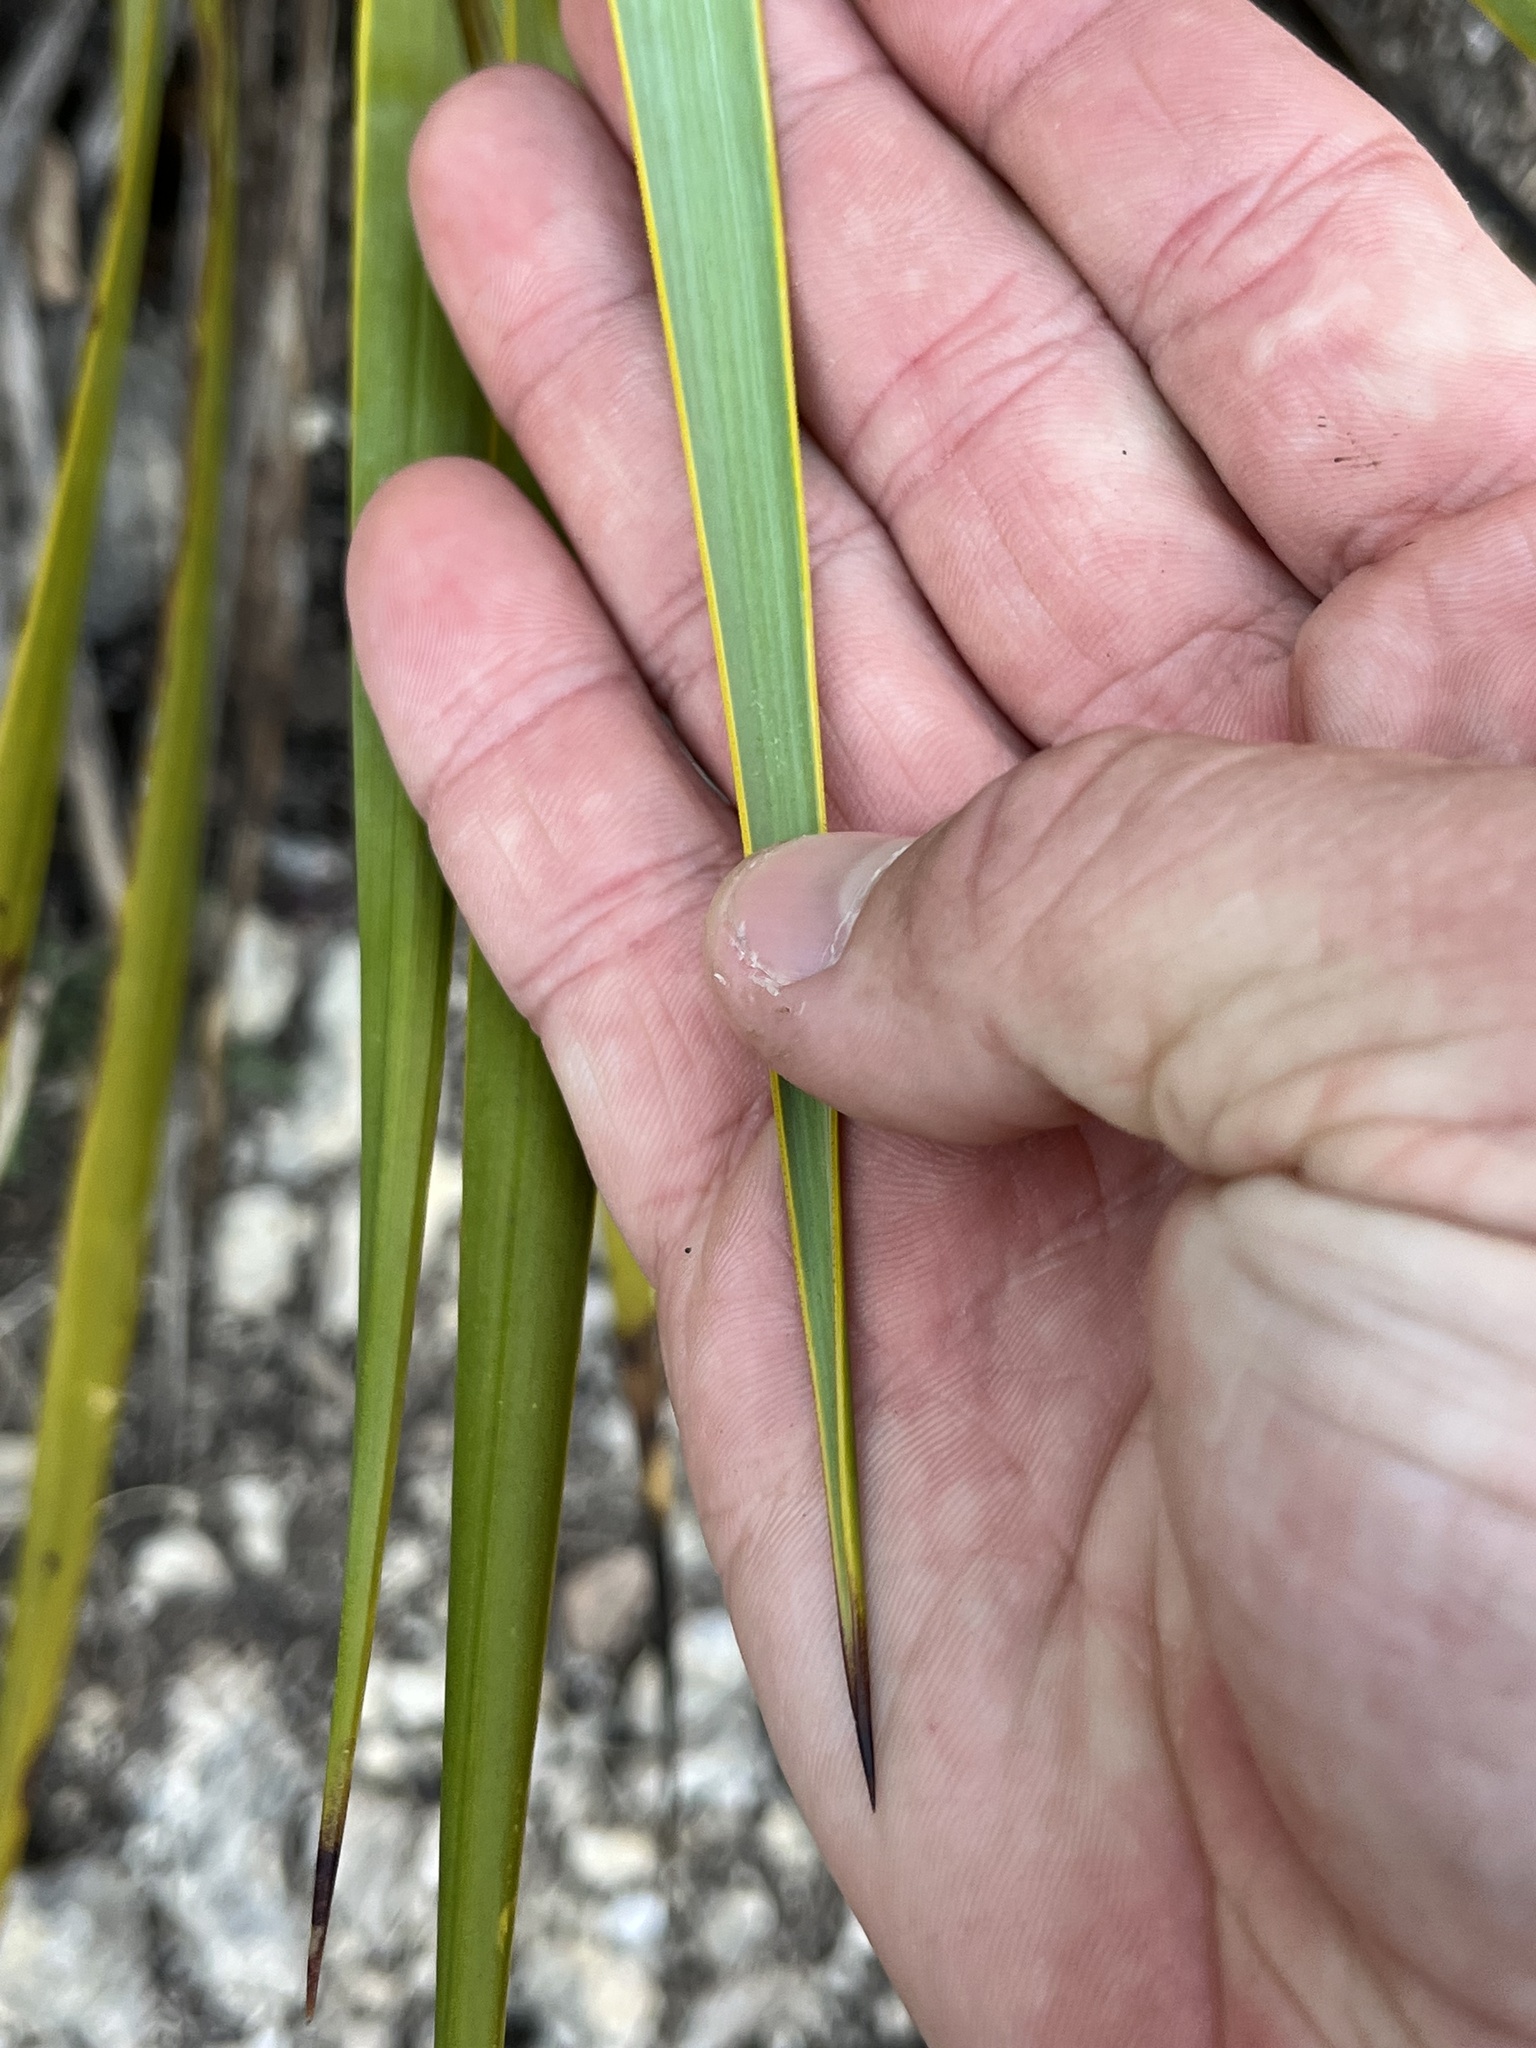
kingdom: Plantae
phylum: Tracheophyta
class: Liliopsida
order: Asparagales
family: Asparagaceae
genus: Yucca
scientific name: Yucca reverchonii
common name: San angelo yucca
